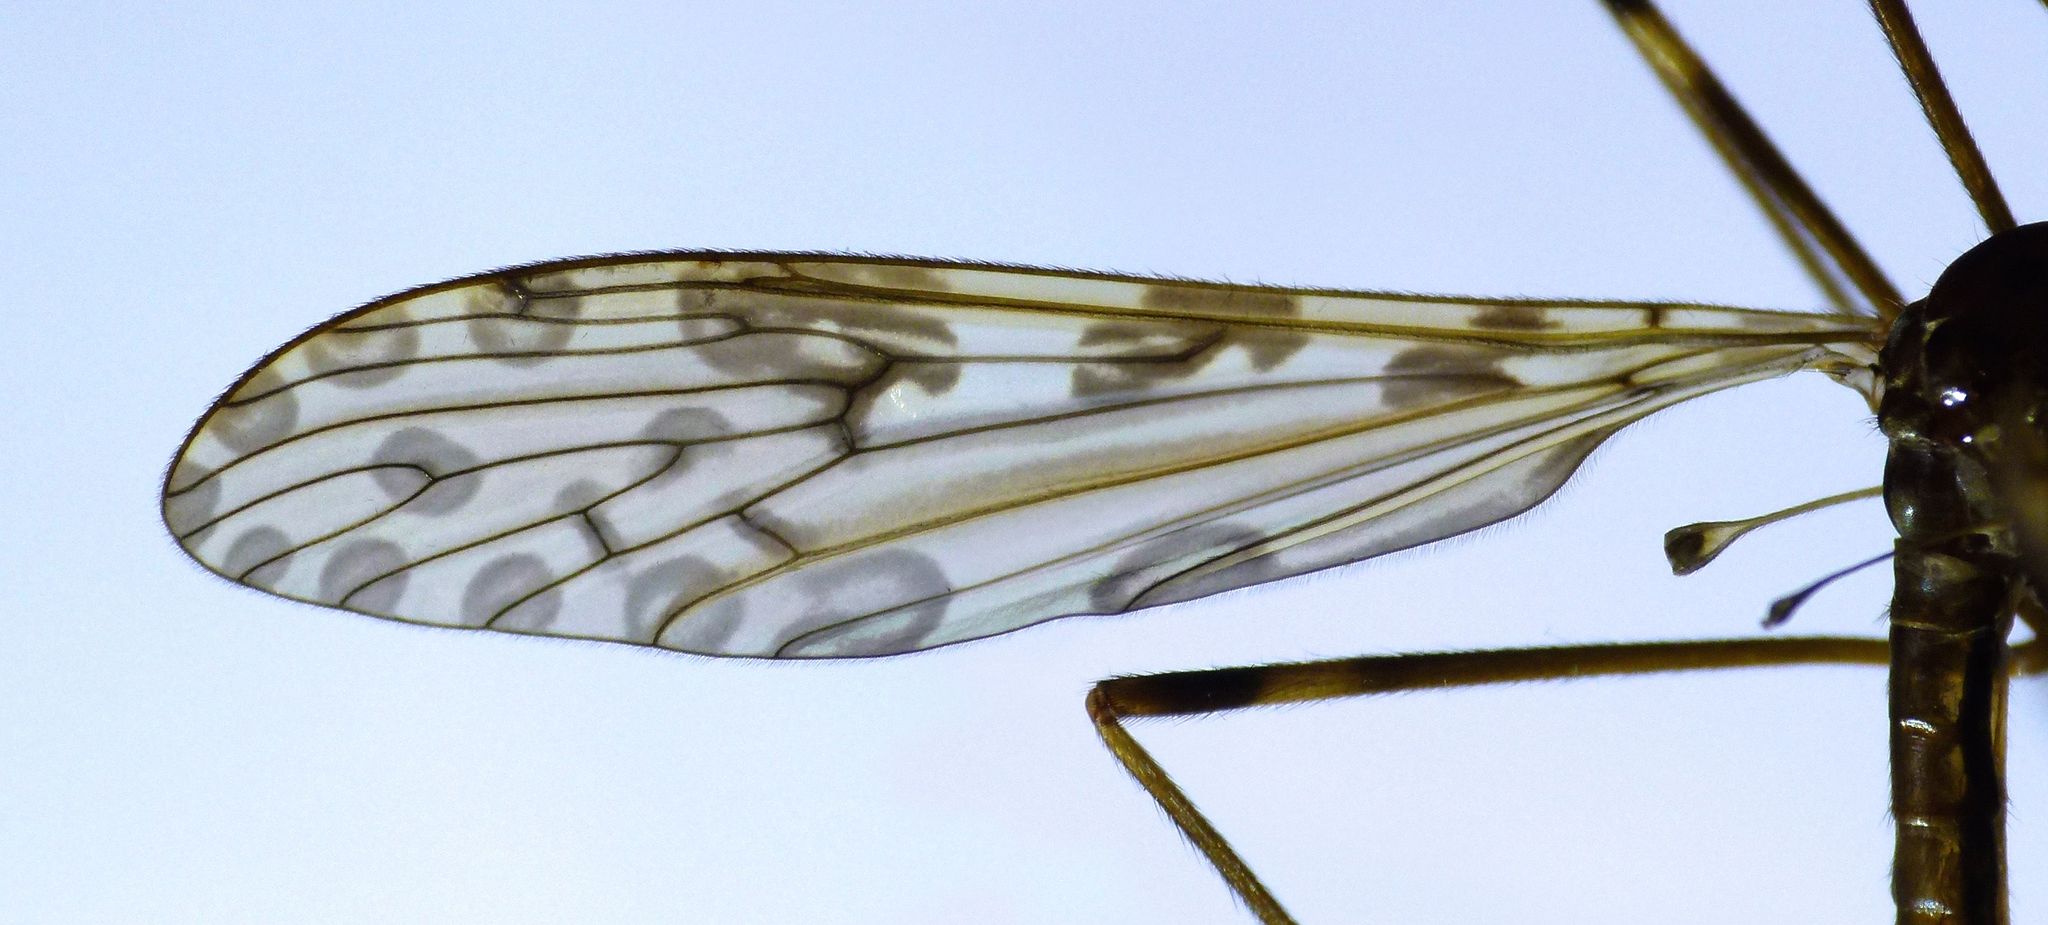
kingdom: Animalia
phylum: Arthropoda
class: Insecta
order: Diptera
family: Limoniidae
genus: Austrolimnophila
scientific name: Austrolimnophila oculata
